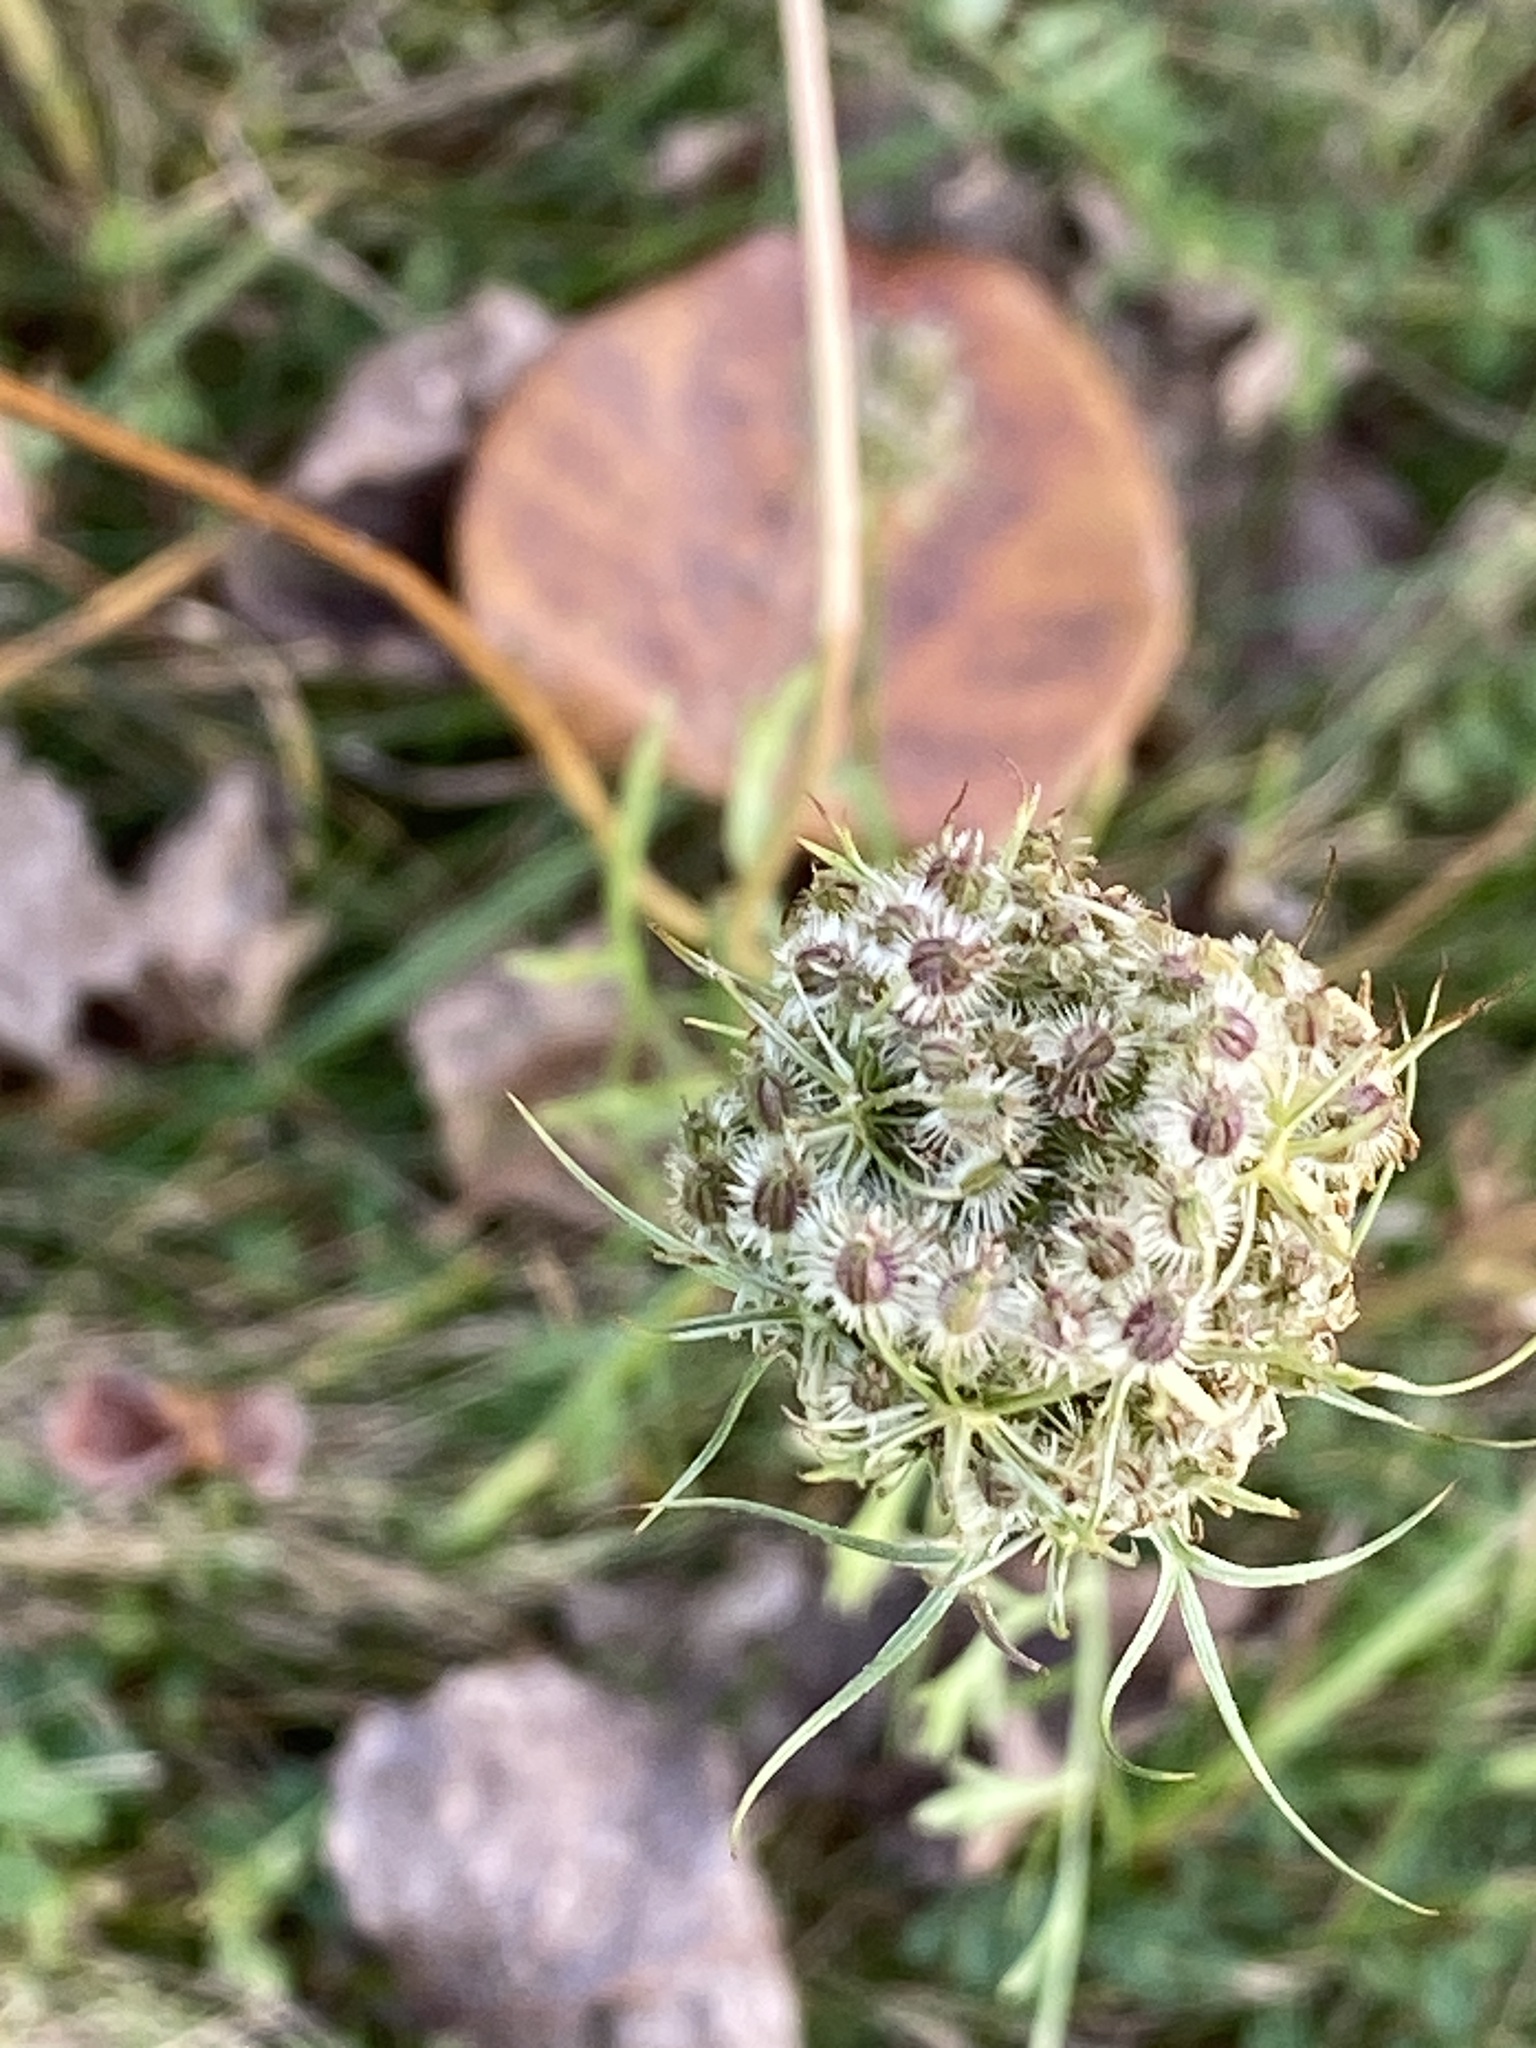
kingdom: Plantae
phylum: Tracheophyta
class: Magnoliopsida
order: Apiales
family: Apiaceae
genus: Daucus
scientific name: Daucus carota
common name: Wild carrot
